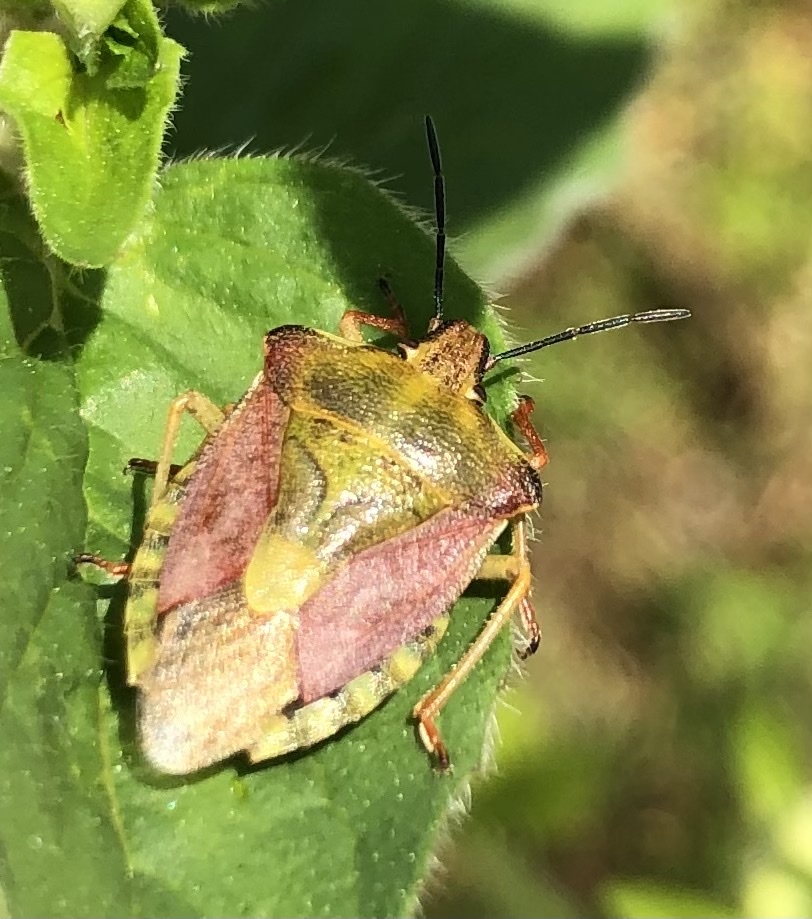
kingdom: Animalia
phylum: Arthropoda
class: Insecta
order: Hemiptera
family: Pentatomidae
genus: Carpocoris
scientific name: Carpocoris purpureipennis
